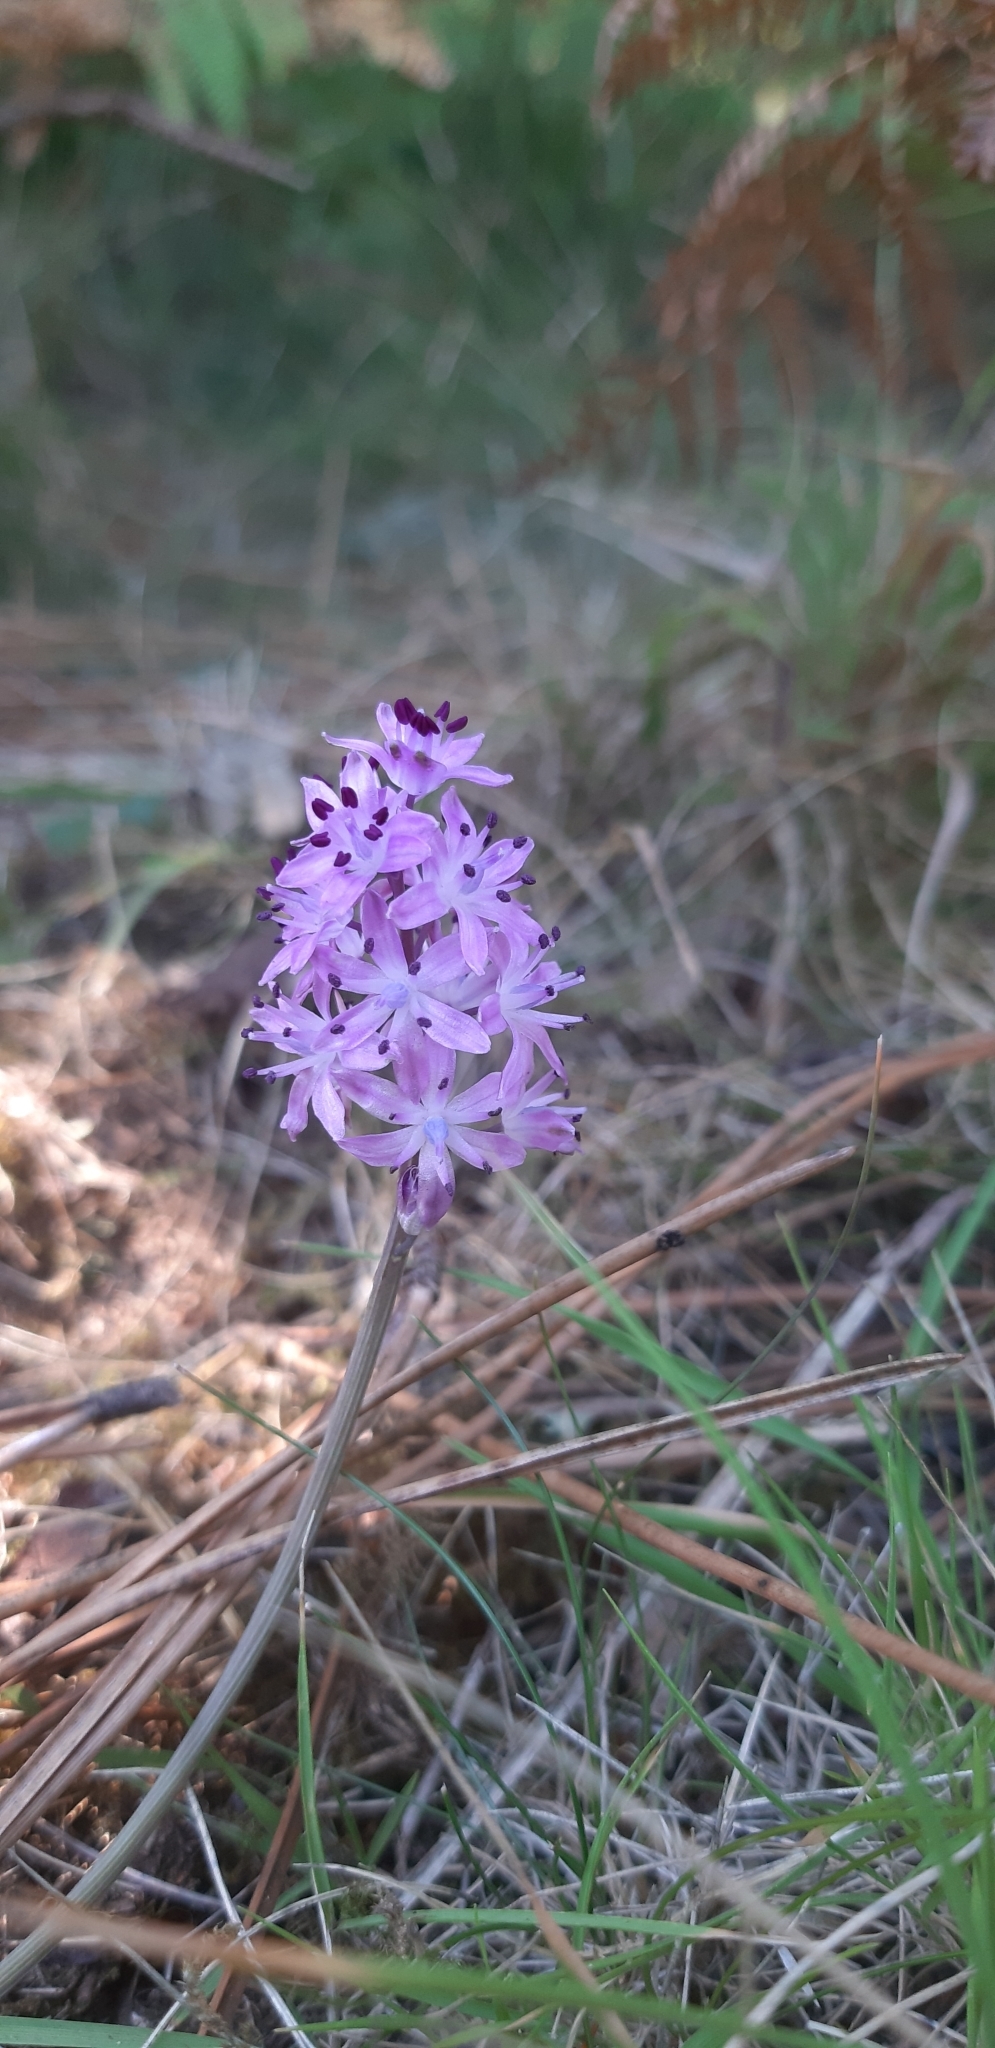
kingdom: Plantae
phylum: Tracheophyta
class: Liliopsida
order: Asparagales
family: Asparagaceae
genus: Prospero
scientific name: Prospero autumnale
